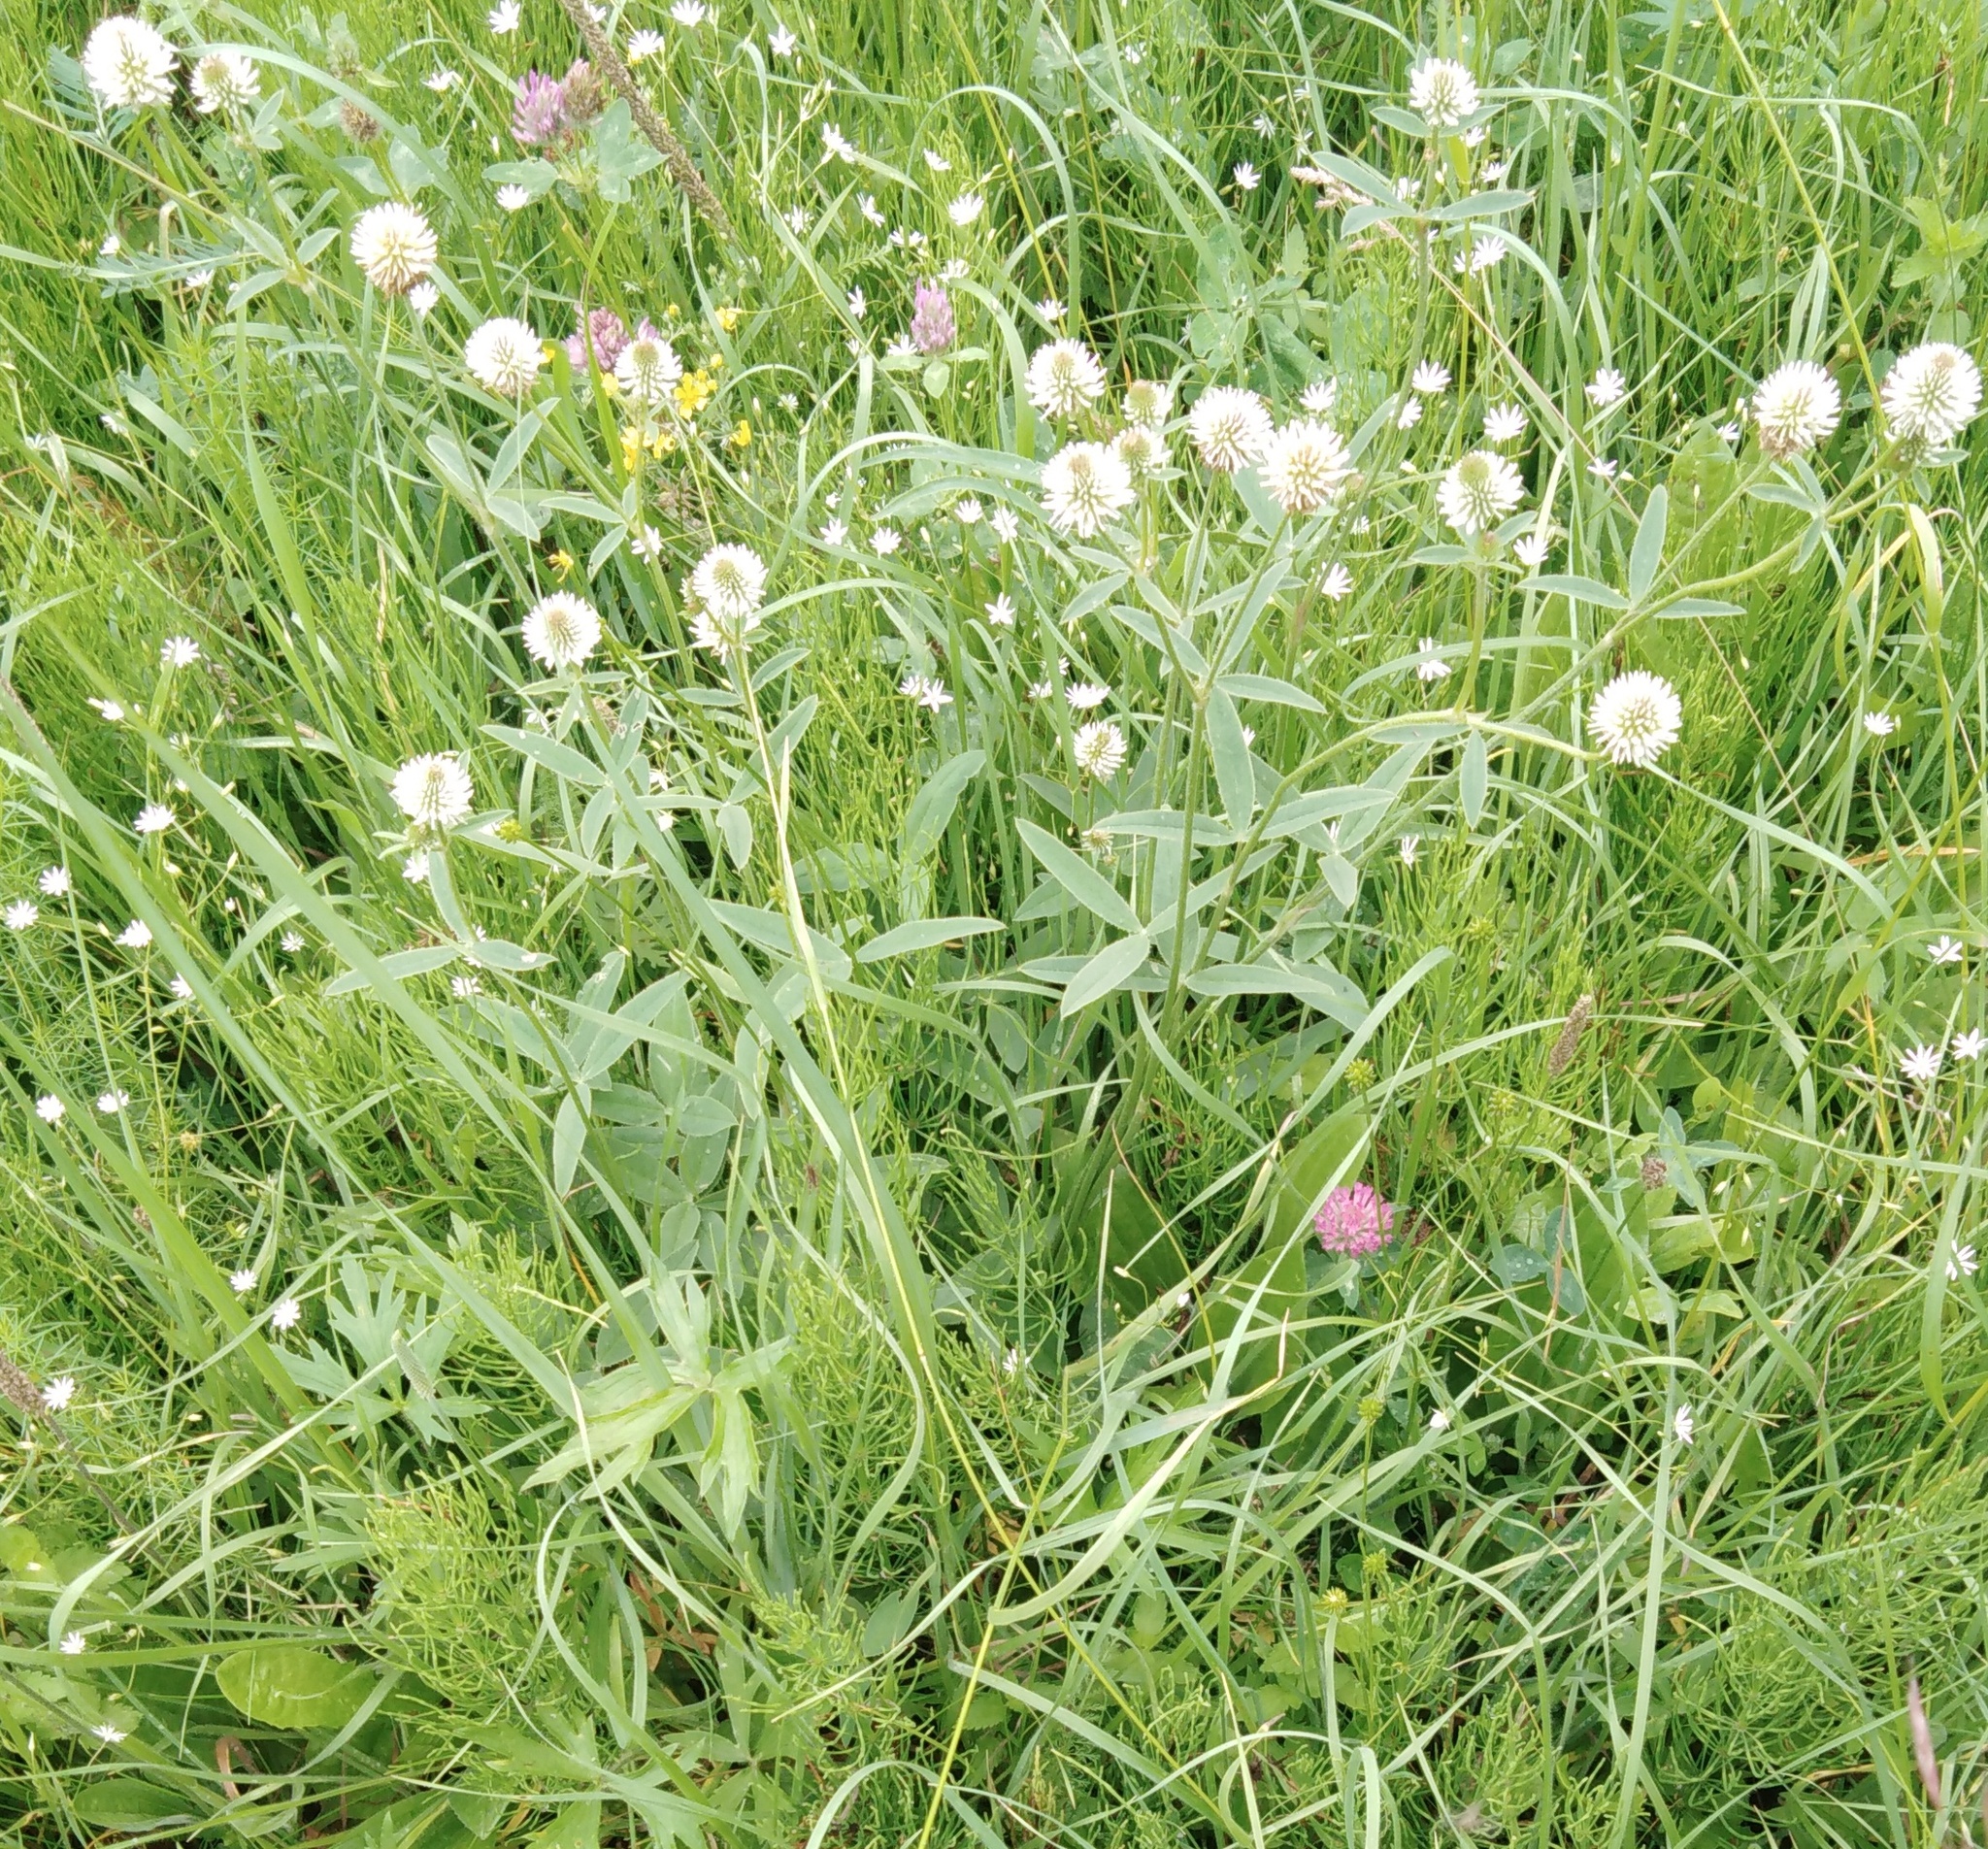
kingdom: Plantae
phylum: Tracheophyta
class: Magnoliopsida
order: Fabales
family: Fabaceae
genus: Trifolium
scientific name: Trifolium montanum
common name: Mountain clover
